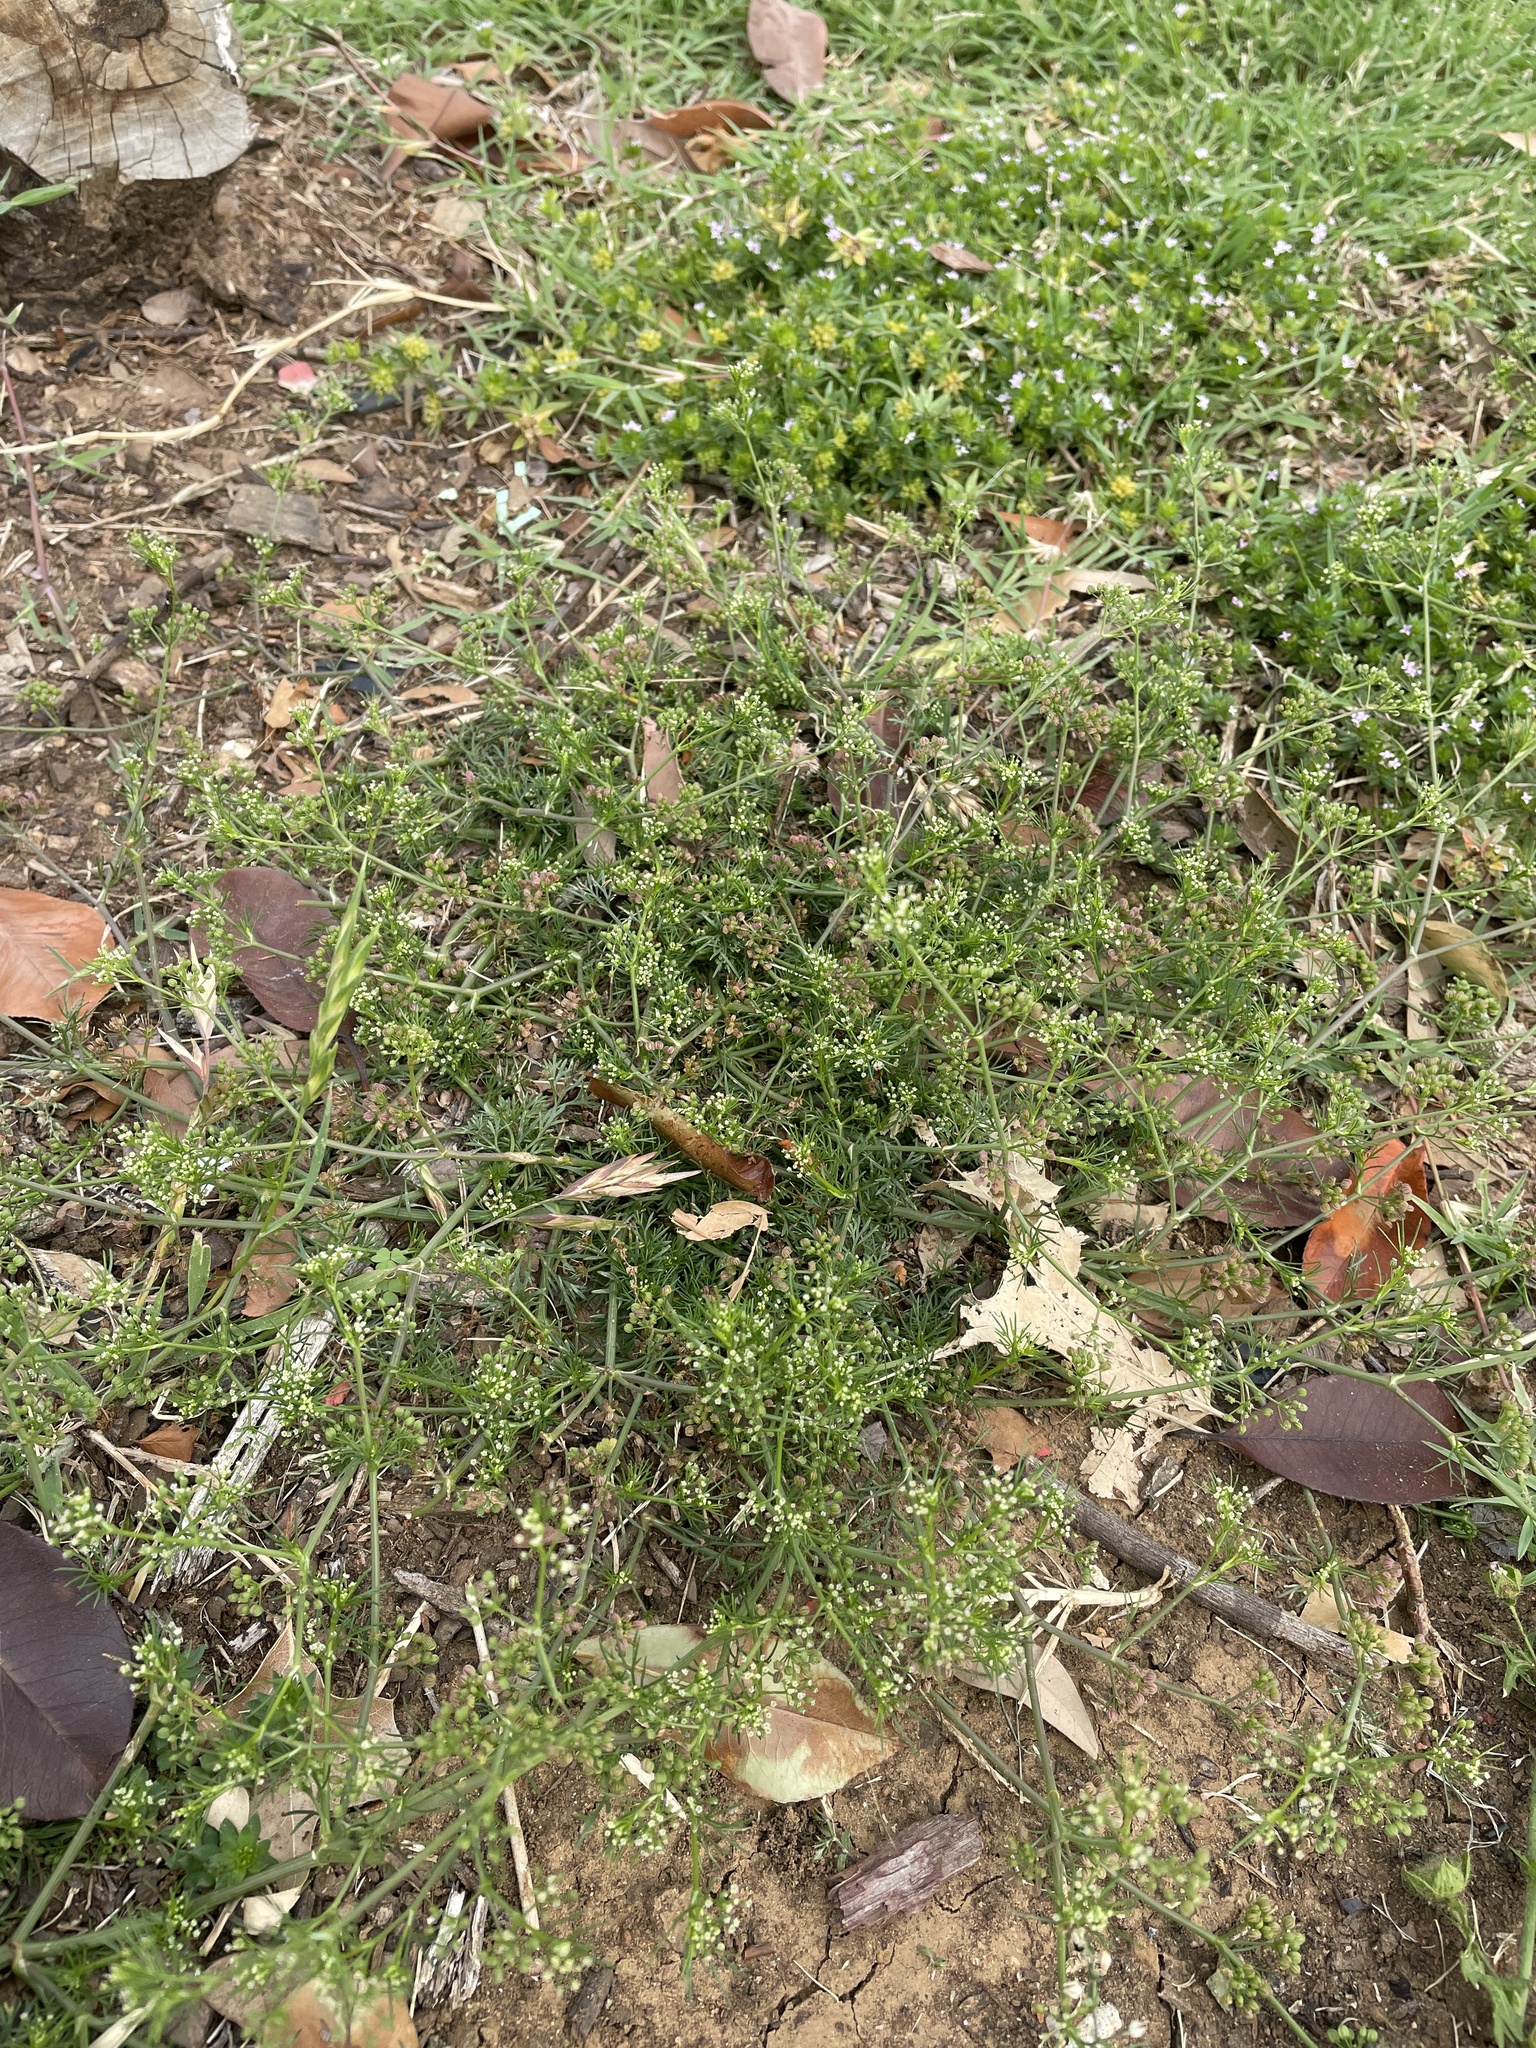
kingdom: Plantae
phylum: Tracheophyta
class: Magnoliopsida
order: Apiales
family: Apiaceae
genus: Cyclospermum
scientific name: Cyclospermum leptophyllum
